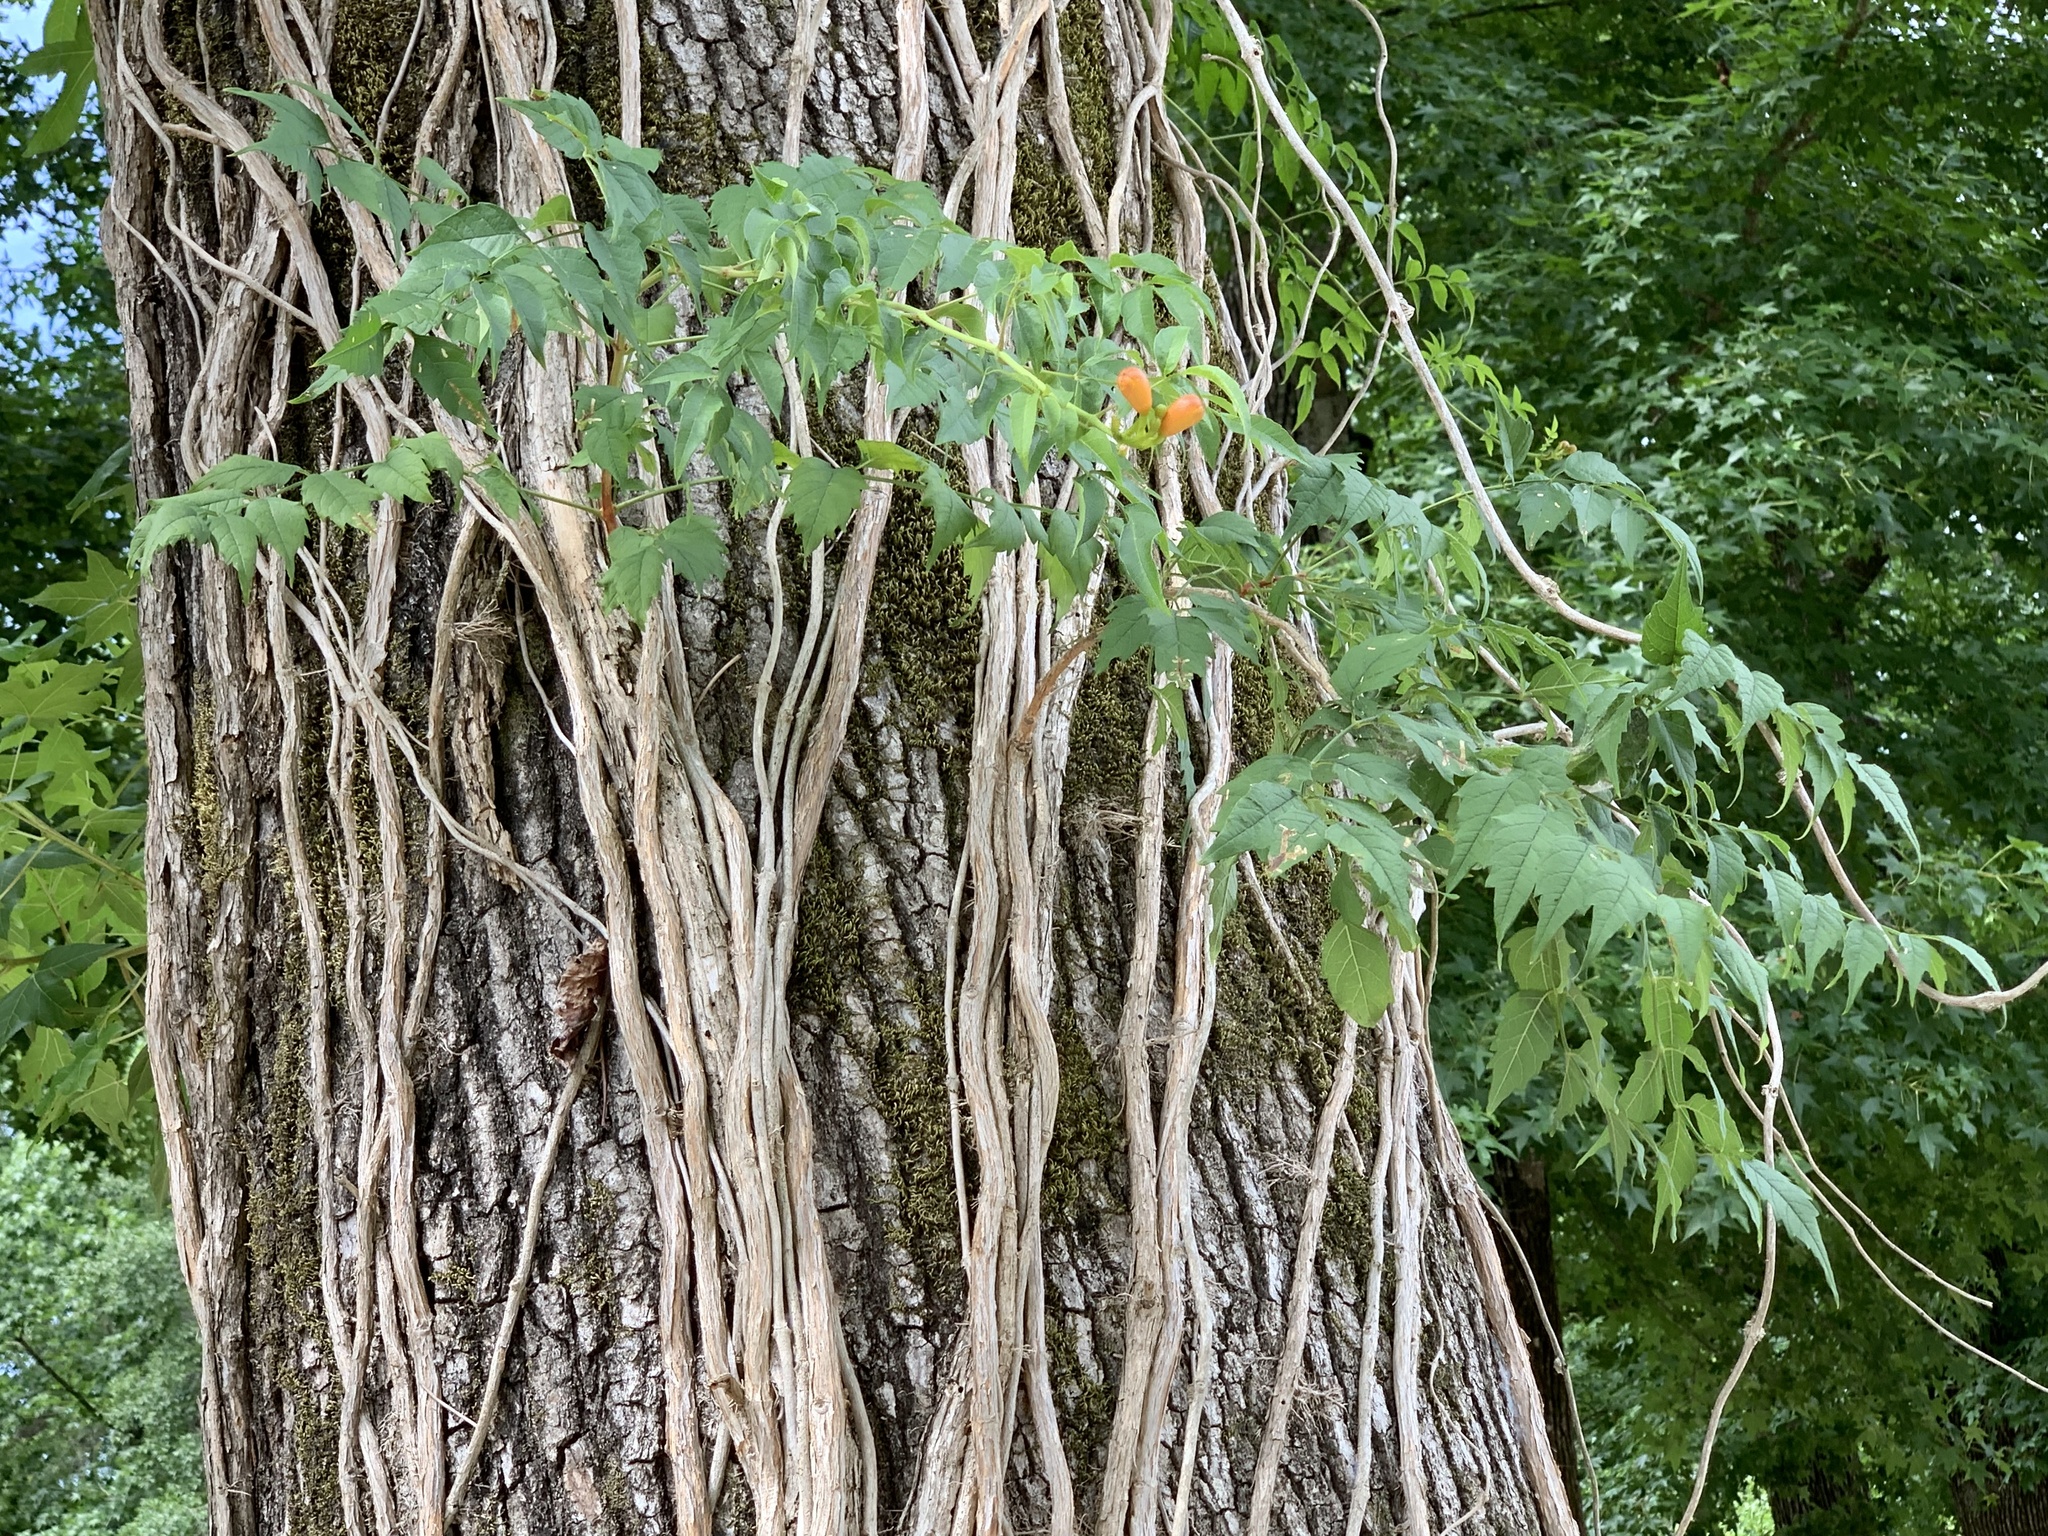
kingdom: Plantae
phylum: Tracheophyta
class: Magnoliopsida
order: Lamiales
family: Bignoniaceae
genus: Campsis
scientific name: Campsis radicans
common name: Trumpet-creeper
